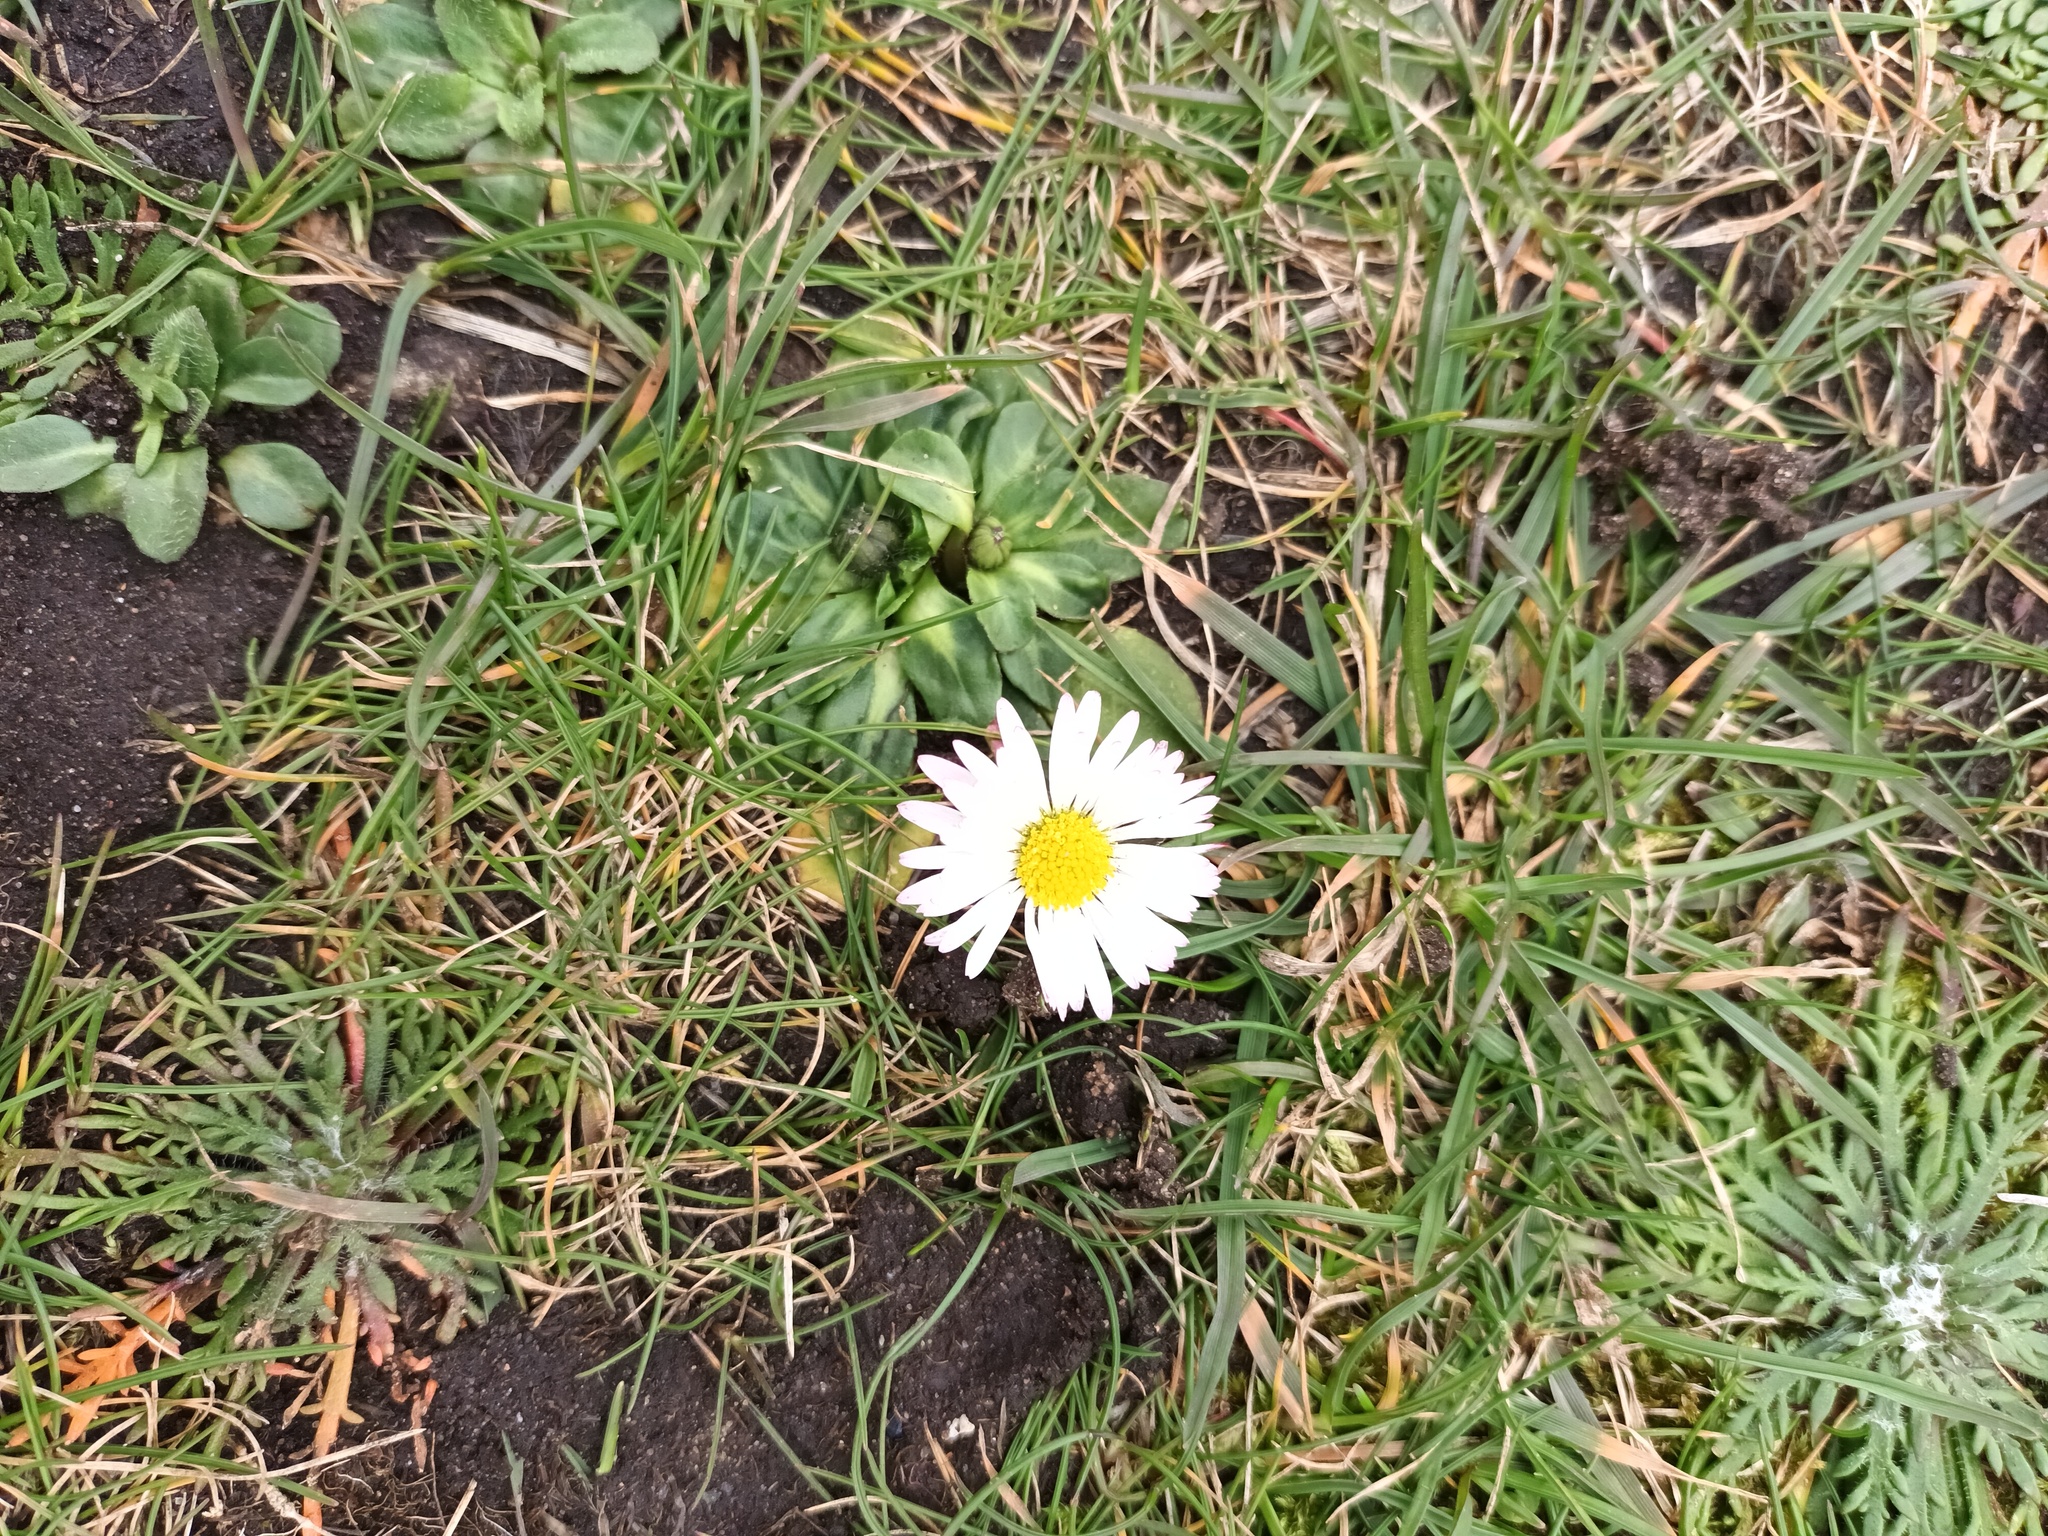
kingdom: Plantae
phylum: Tracheophyta
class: Magnoliopsida
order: Asterales
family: Asteraceae
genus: Bellis
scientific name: Bellis perennis
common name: Lawndaisy
